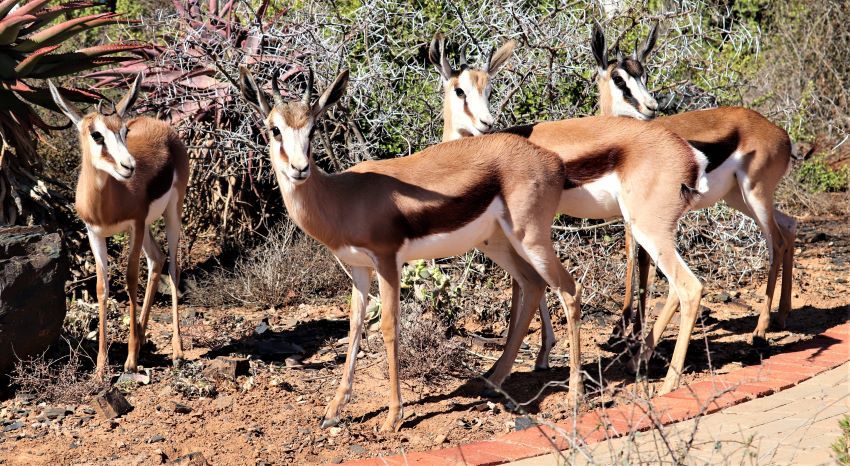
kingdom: Animalia
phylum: Chordata
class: Mammalia
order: Artiodactyla
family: Bovidae
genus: Antidorcas
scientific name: Antidorcas marsupialis
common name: Springbok
